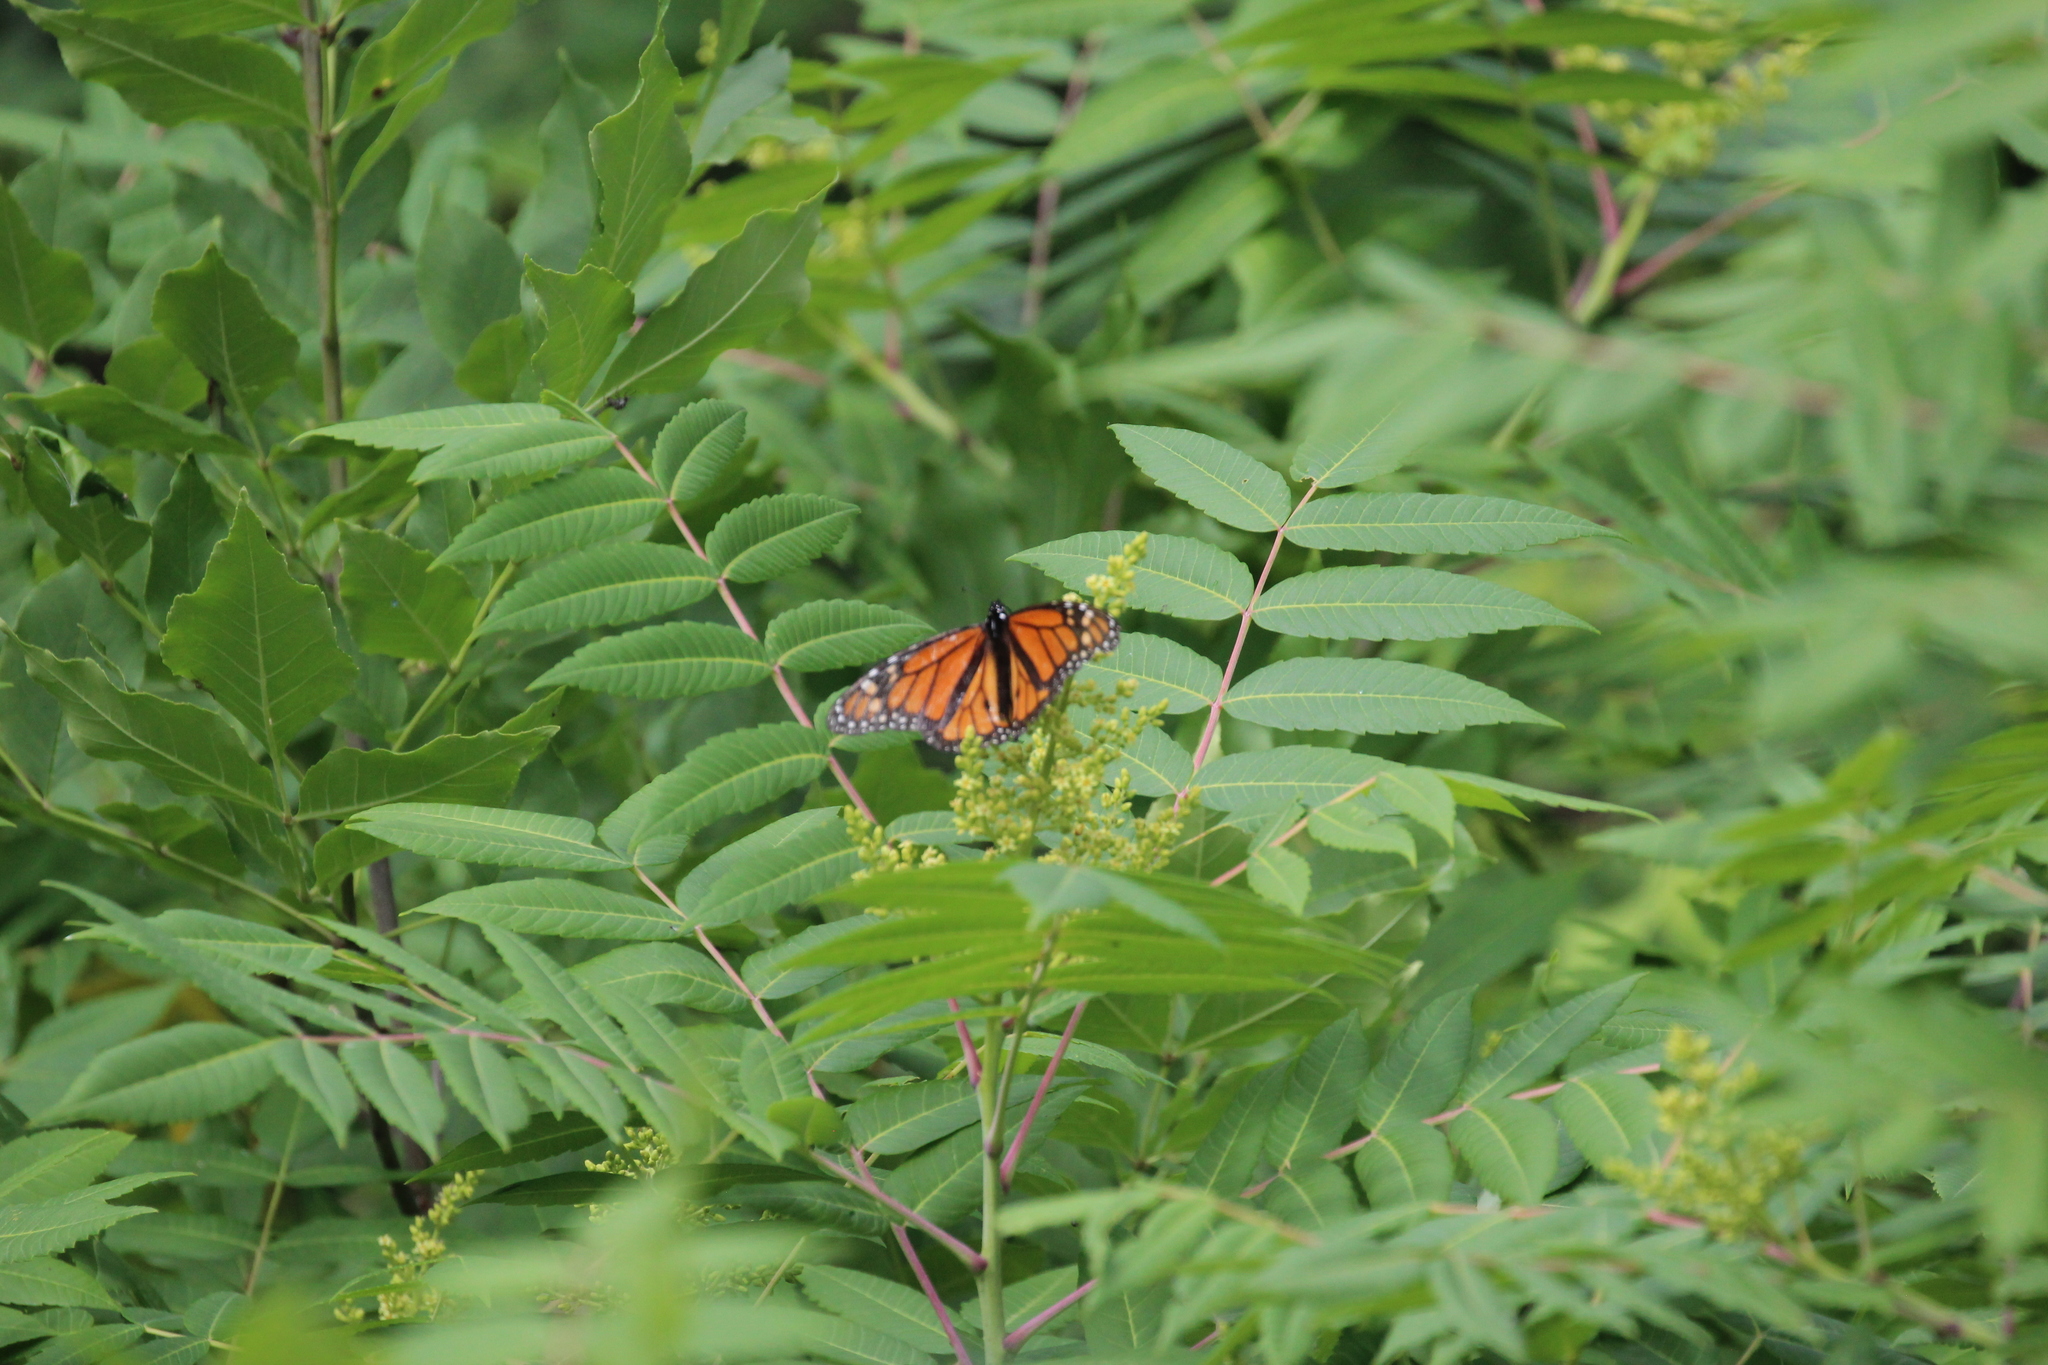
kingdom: Animalia
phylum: Arthropoda
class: Insecta
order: Lepidoptera
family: Nymphalidae
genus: Danaus
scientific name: Danaus plexippus
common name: Monarch
